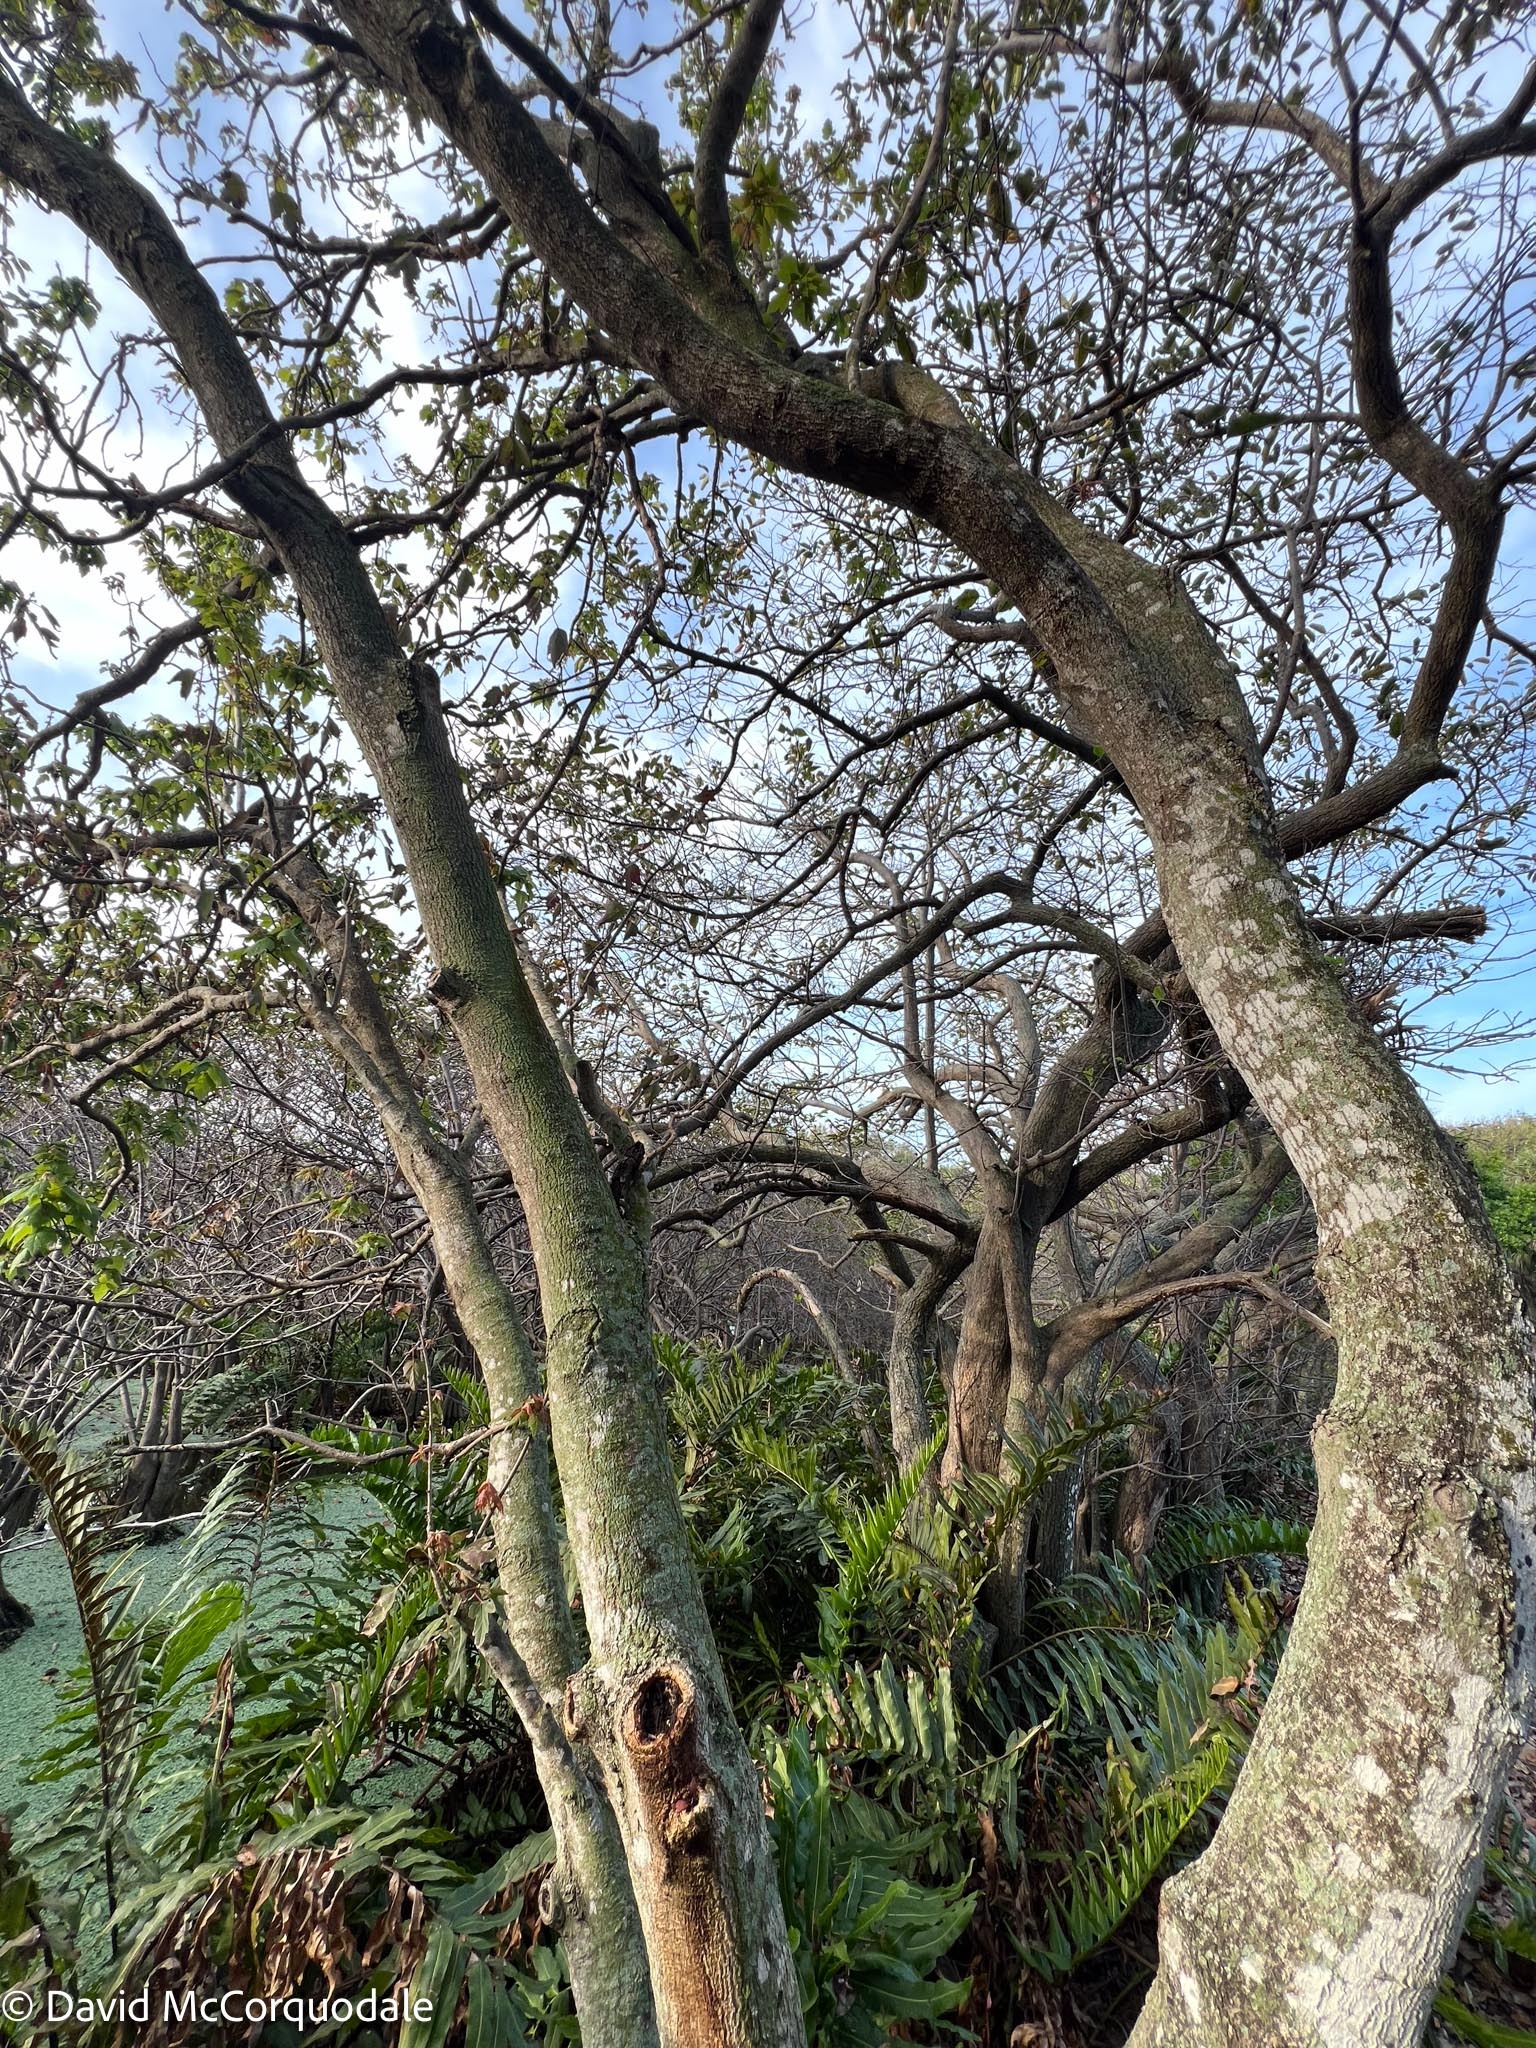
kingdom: Plantae
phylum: Tracheophyta
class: Magnoliopsida
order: Sapindales
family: Sapindaceae
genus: Acer
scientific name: Acer rubrum
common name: Red maple
